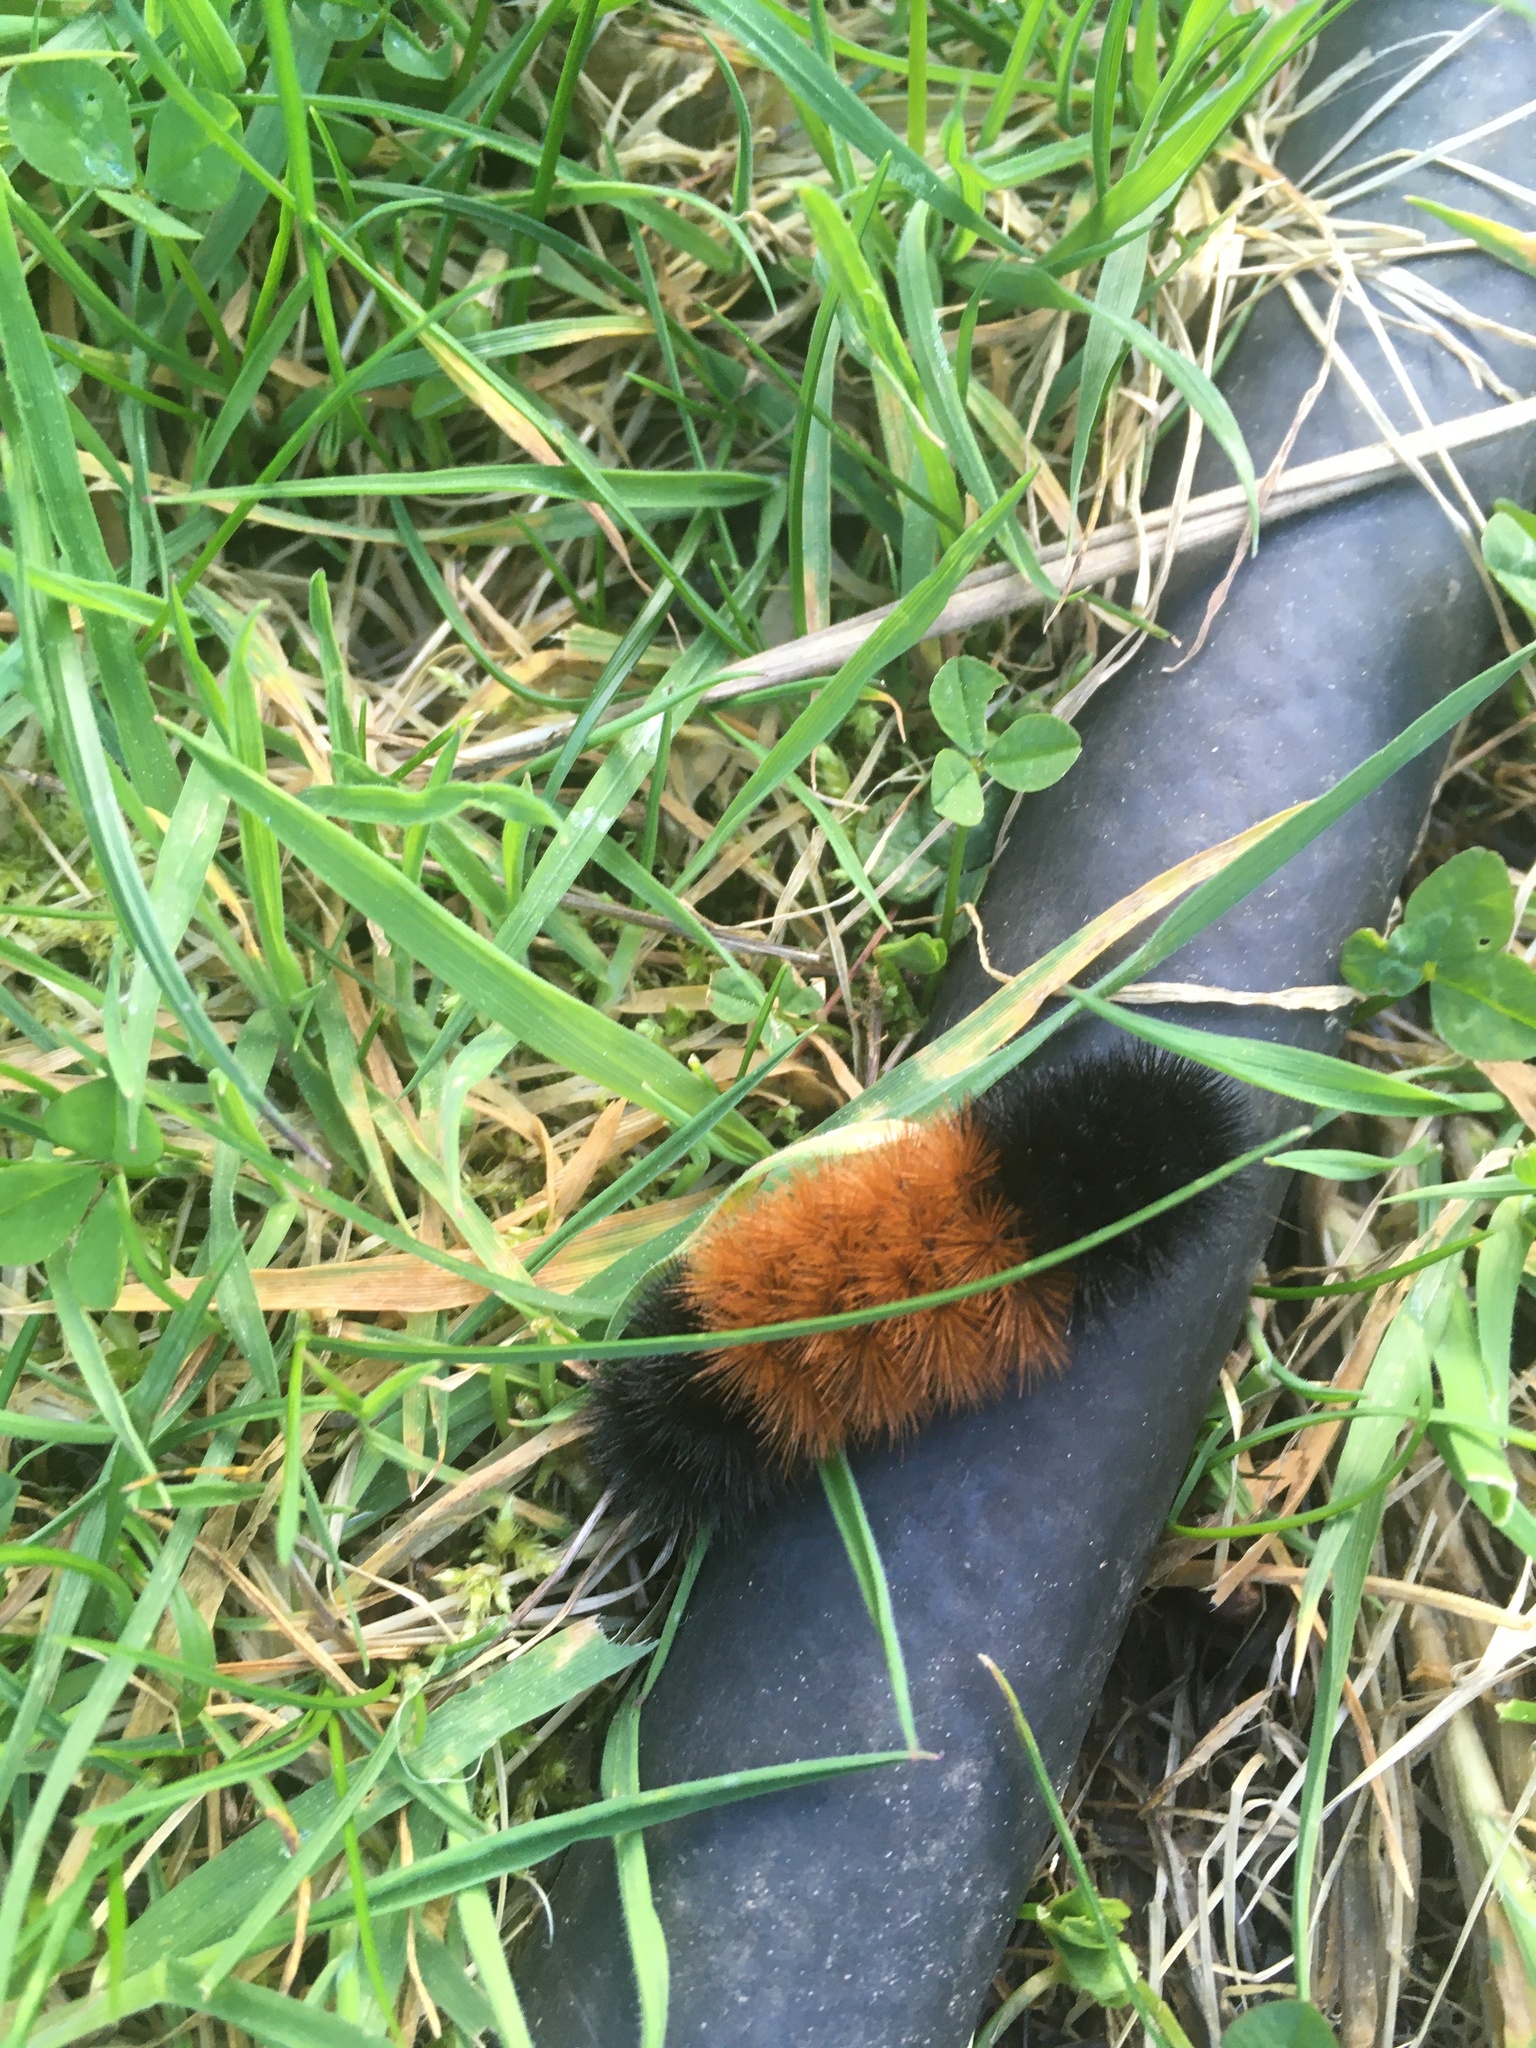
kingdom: Animalia
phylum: Arthropoda
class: Insecta
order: Lepidoptera
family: Erebidae
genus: Pyrrharctia
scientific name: Pyrrharctia isabella
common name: Isabella tiger moth
